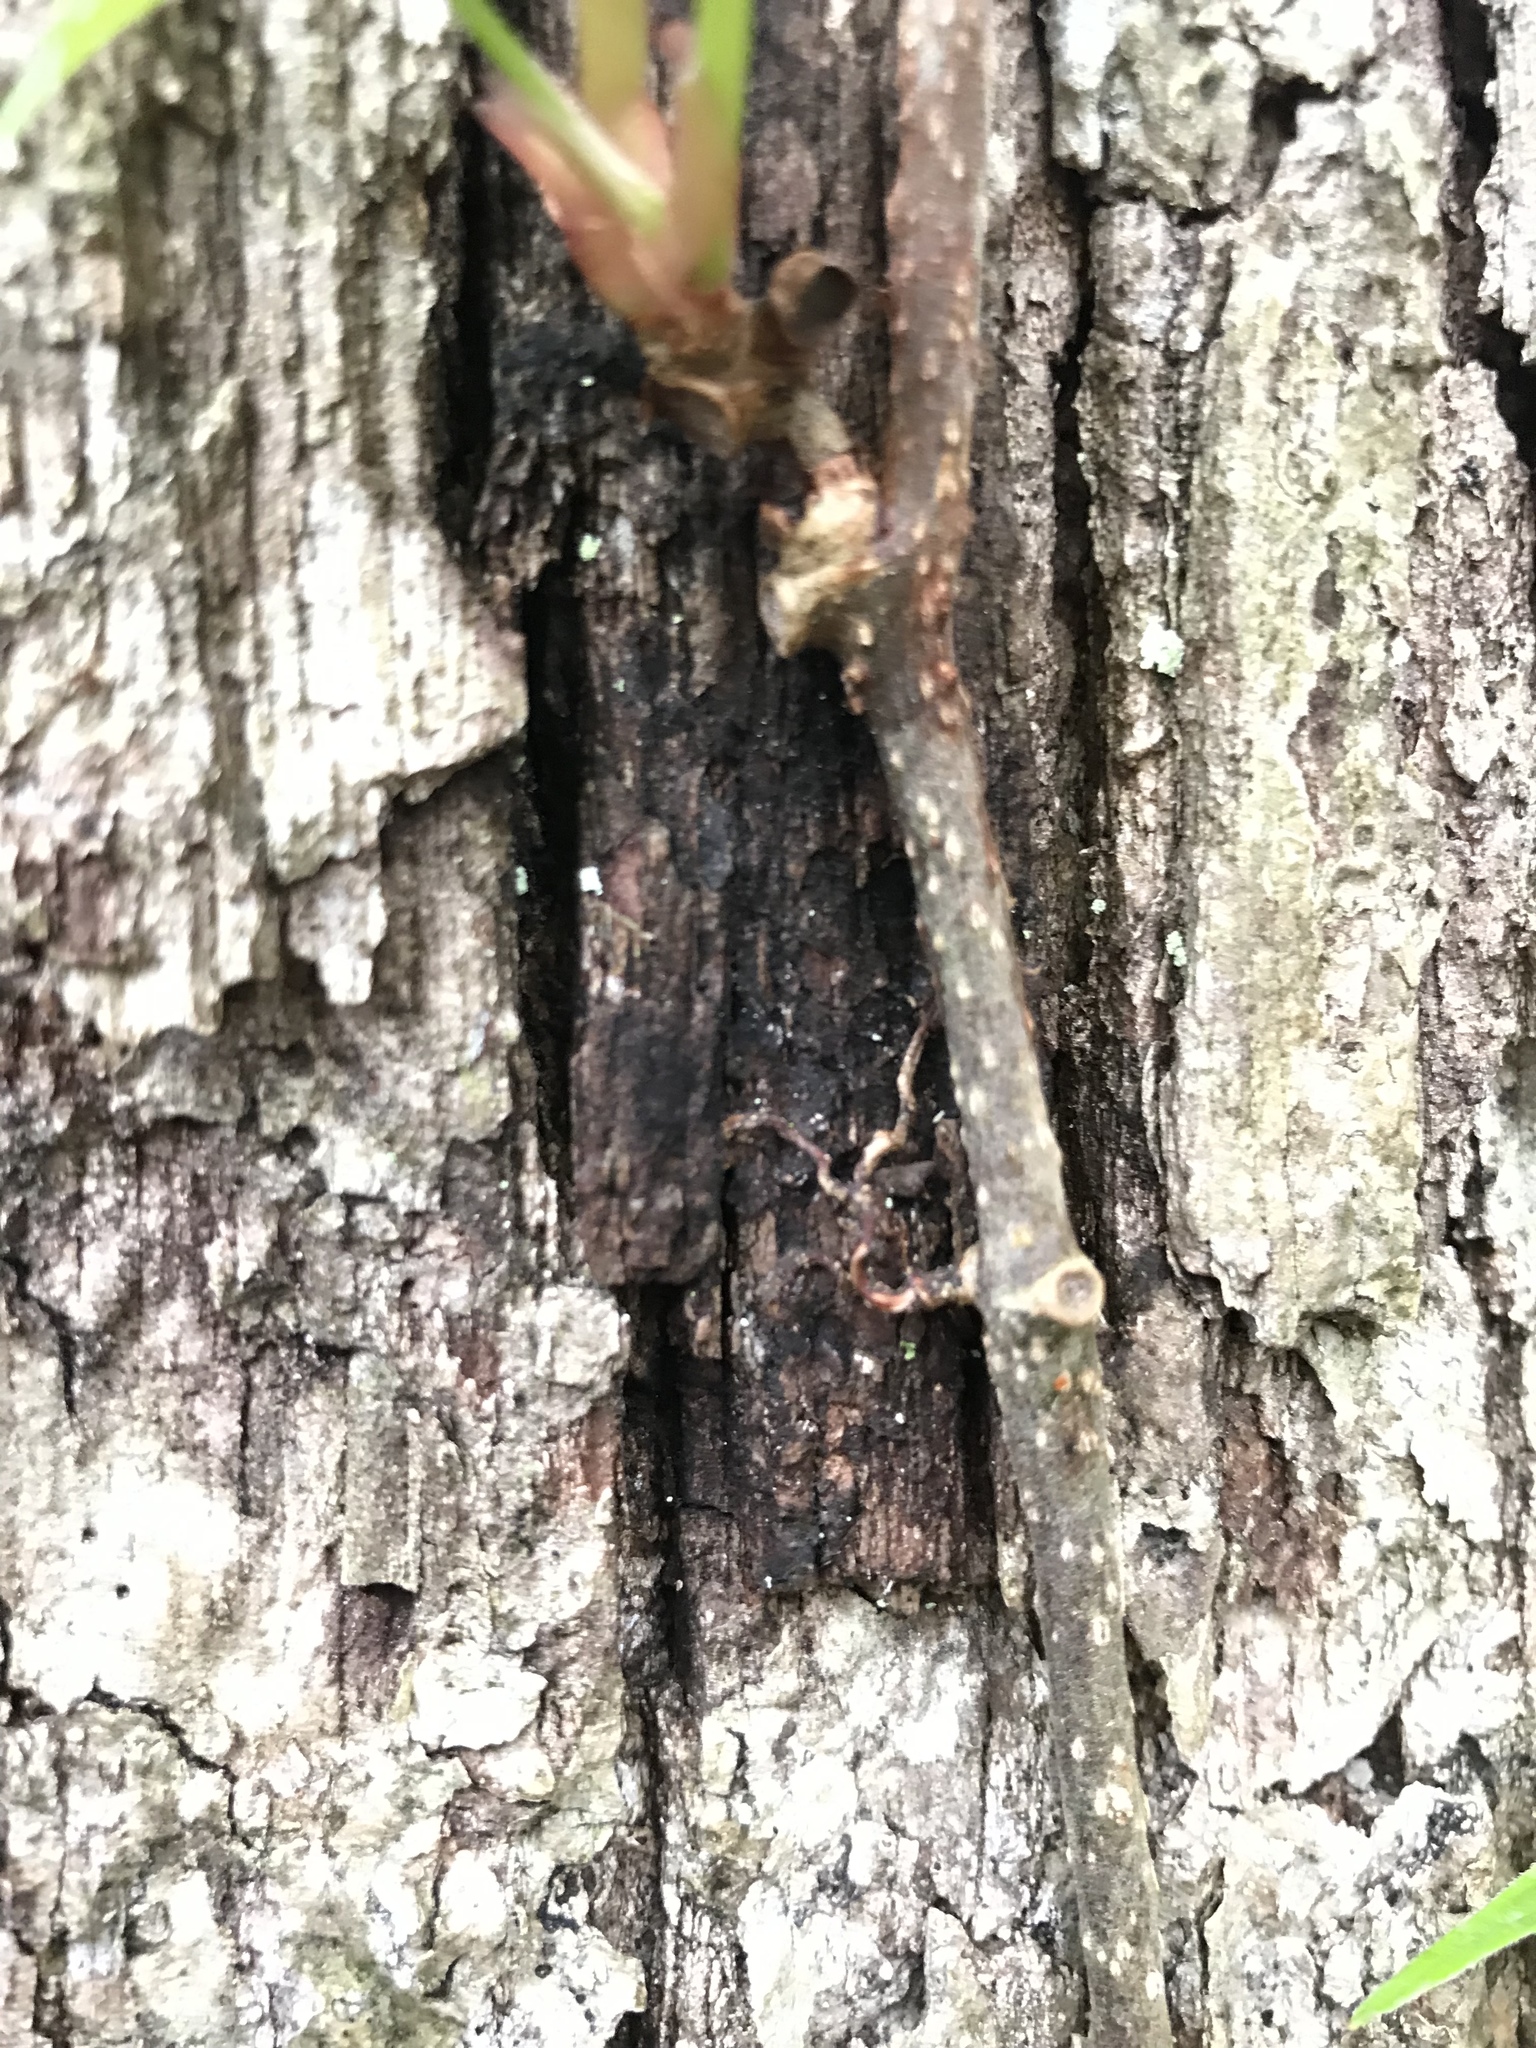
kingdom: Plantae
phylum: Tracheophyta
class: Magnoliopsida
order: Vitales
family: Vitaceae
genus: Parthenocissus
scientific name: Parthenocissus quinquefolia
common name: Virginia-creeper
